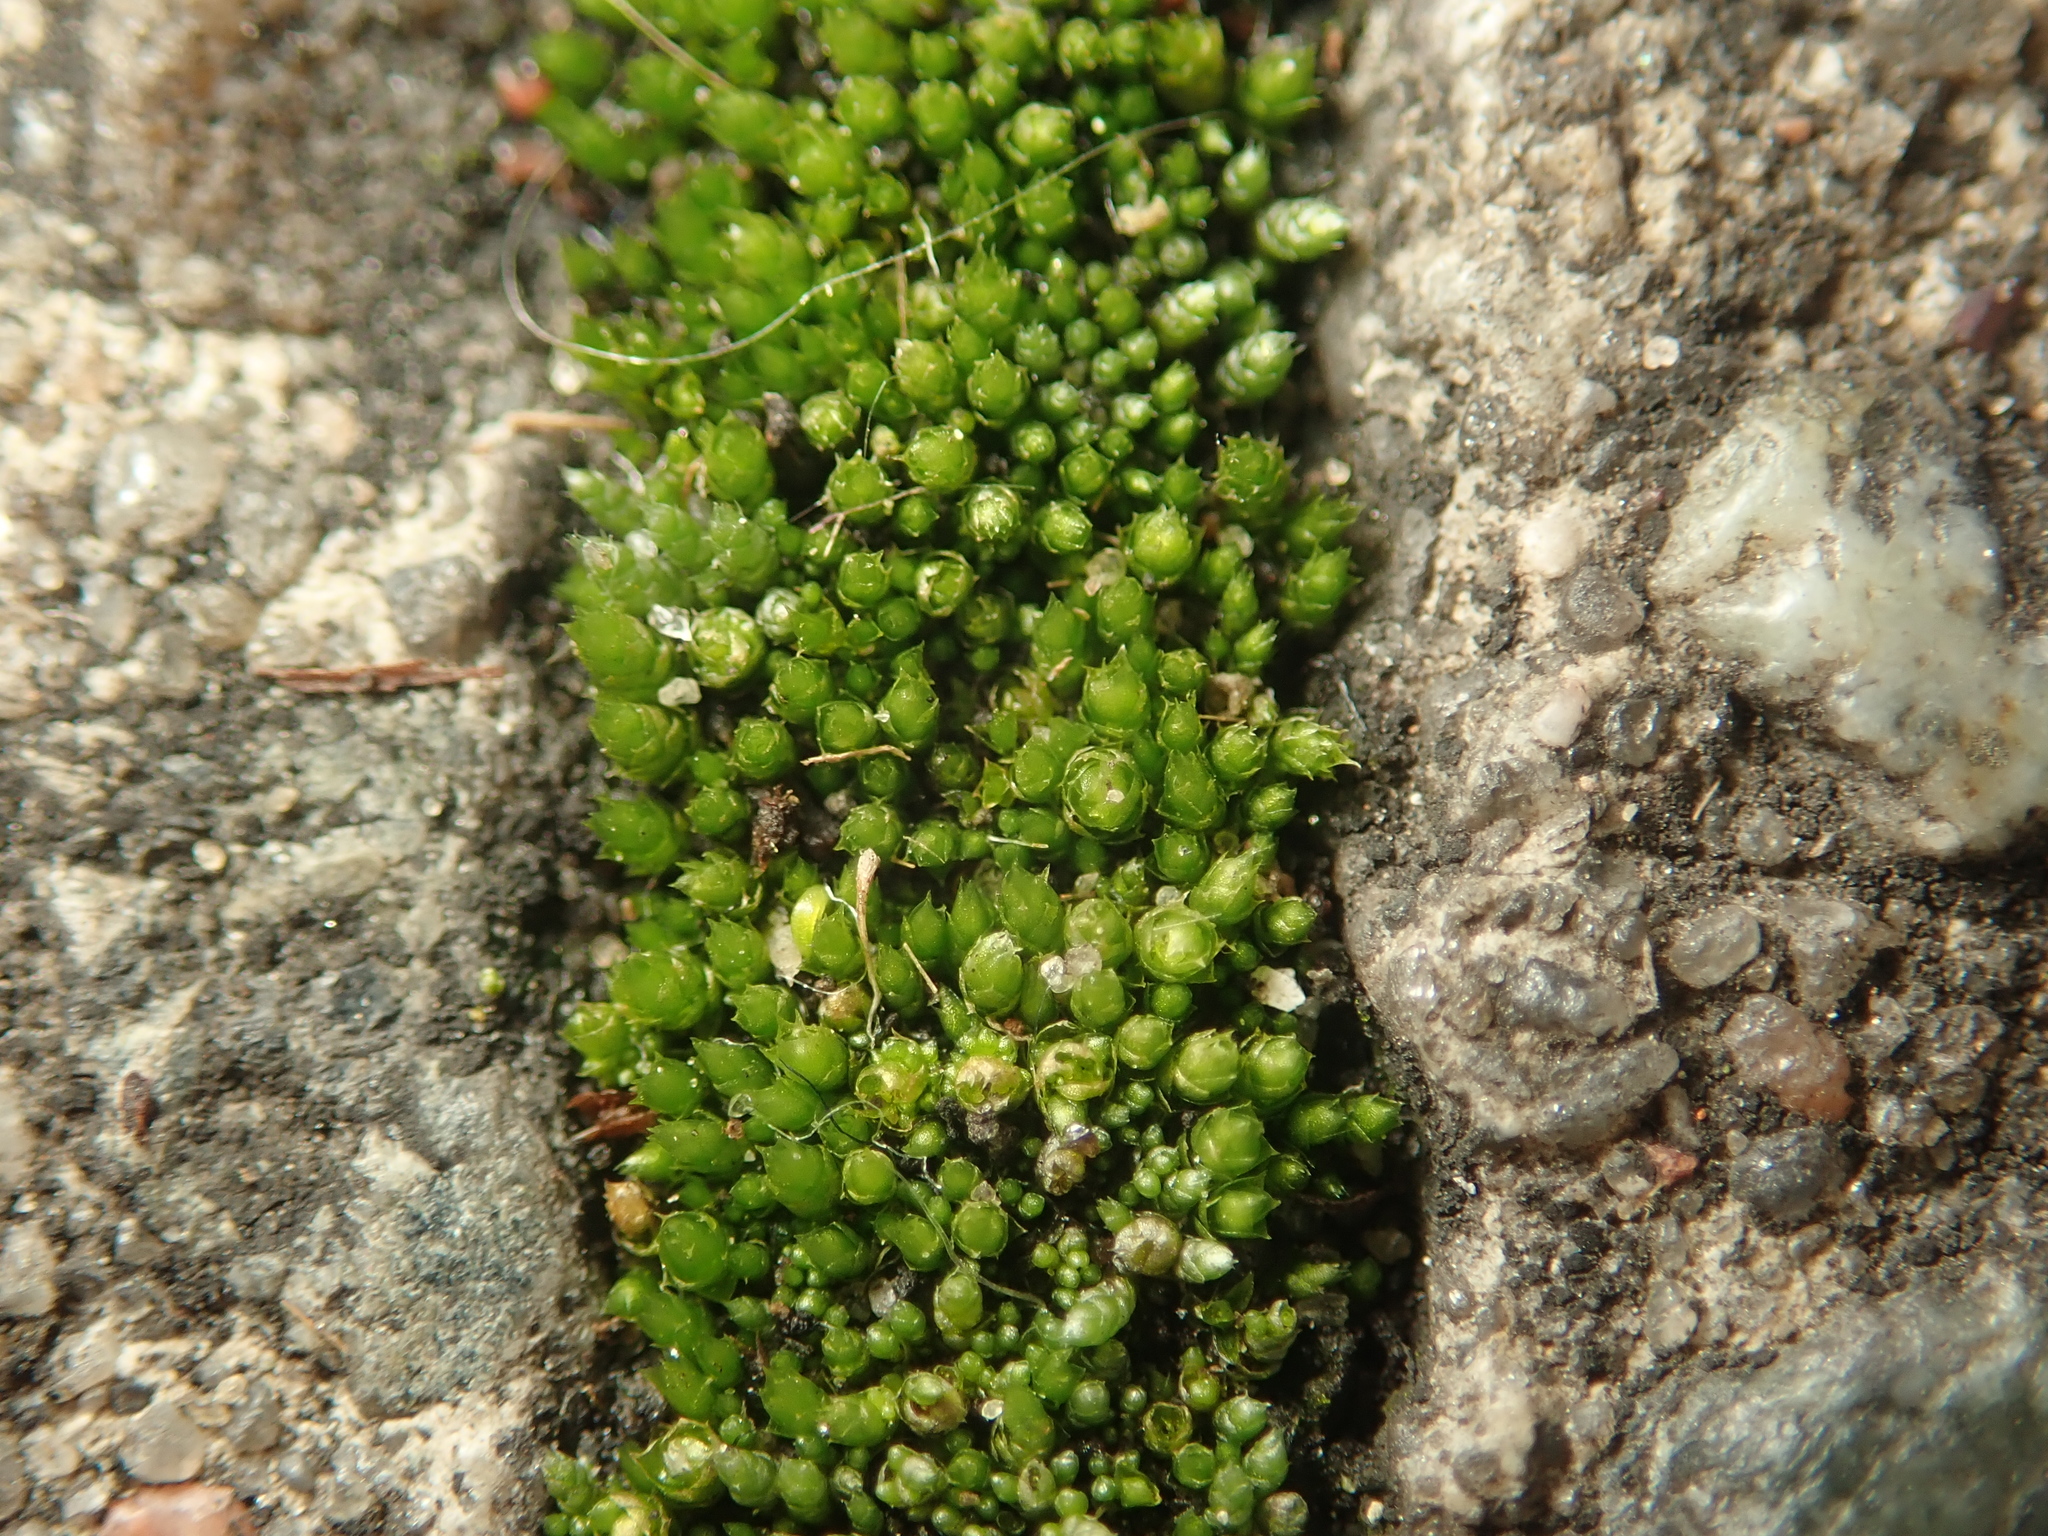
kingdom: Plantae
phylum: Bryophyta
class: Bryopsida
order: Bryales
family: Bryaceae
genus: Bryum
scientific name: Bryum argenteum
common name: Silver-moss
